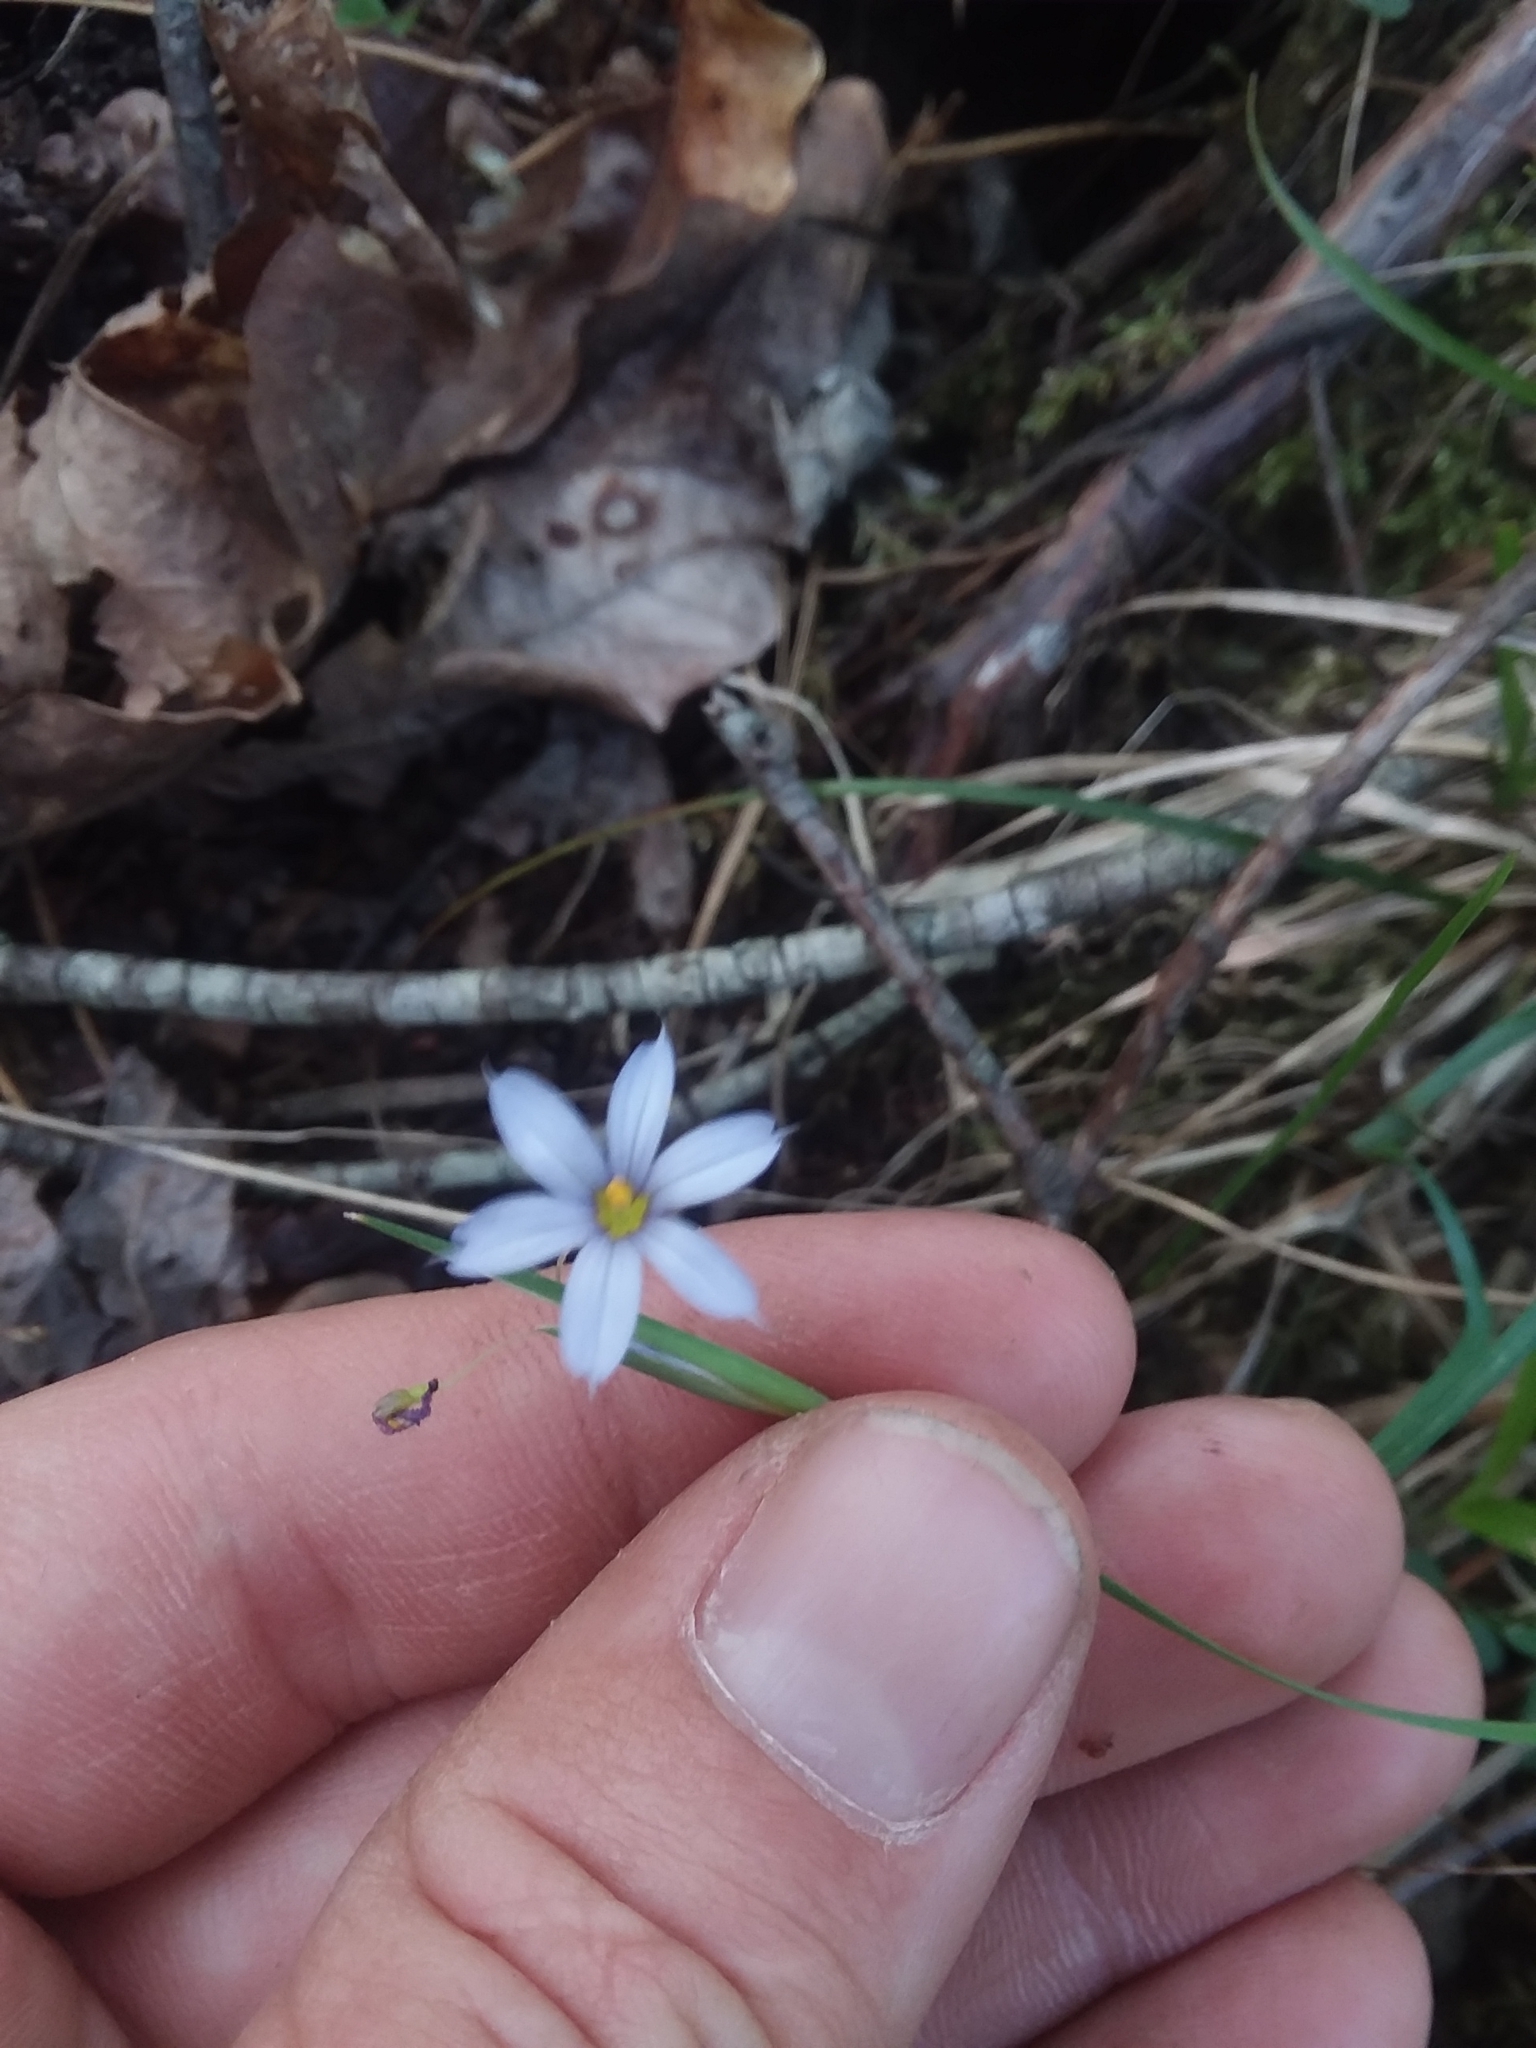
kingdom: Plantae
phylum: Tracheophyta
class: Liliopsida
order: Asparagales
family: Iridaceae
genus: Sisyrinchium
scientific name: Sisyrinchium angustifolium
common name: Narrow-leaf blue-eyed-grass
